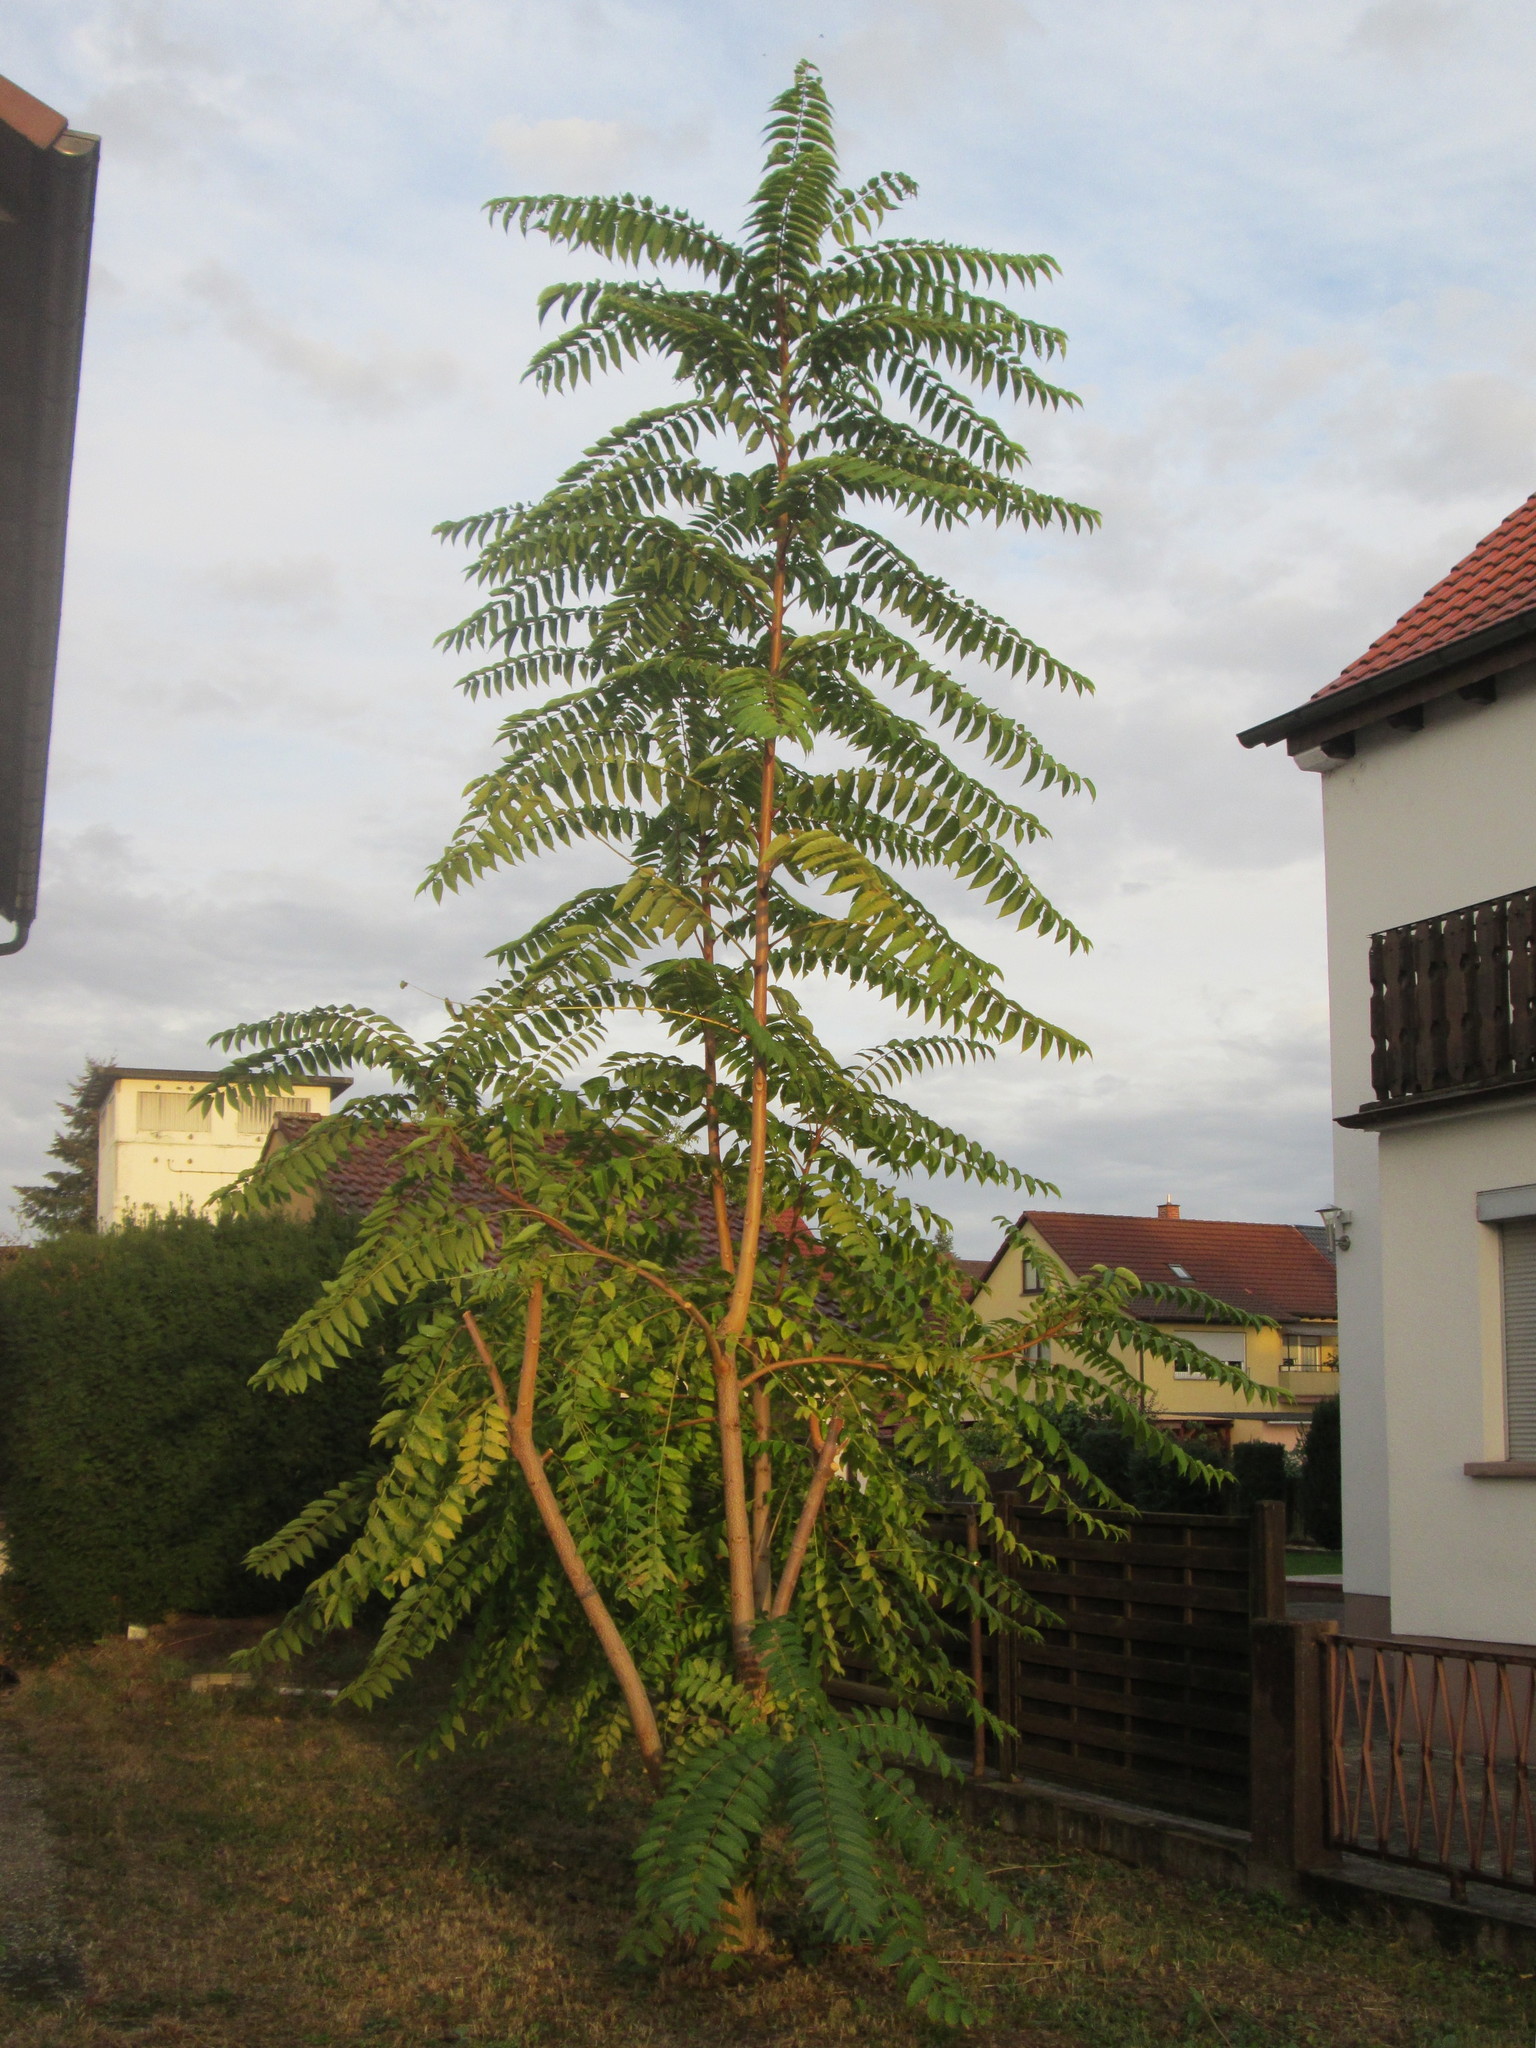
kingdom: Plantae
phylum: Tracheophyta
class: Magnoliopsida
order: Sapindales
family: Simaroubaceae
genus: Ailanthus
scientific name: Ailanthus altissima
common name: Tree-of-heaven
